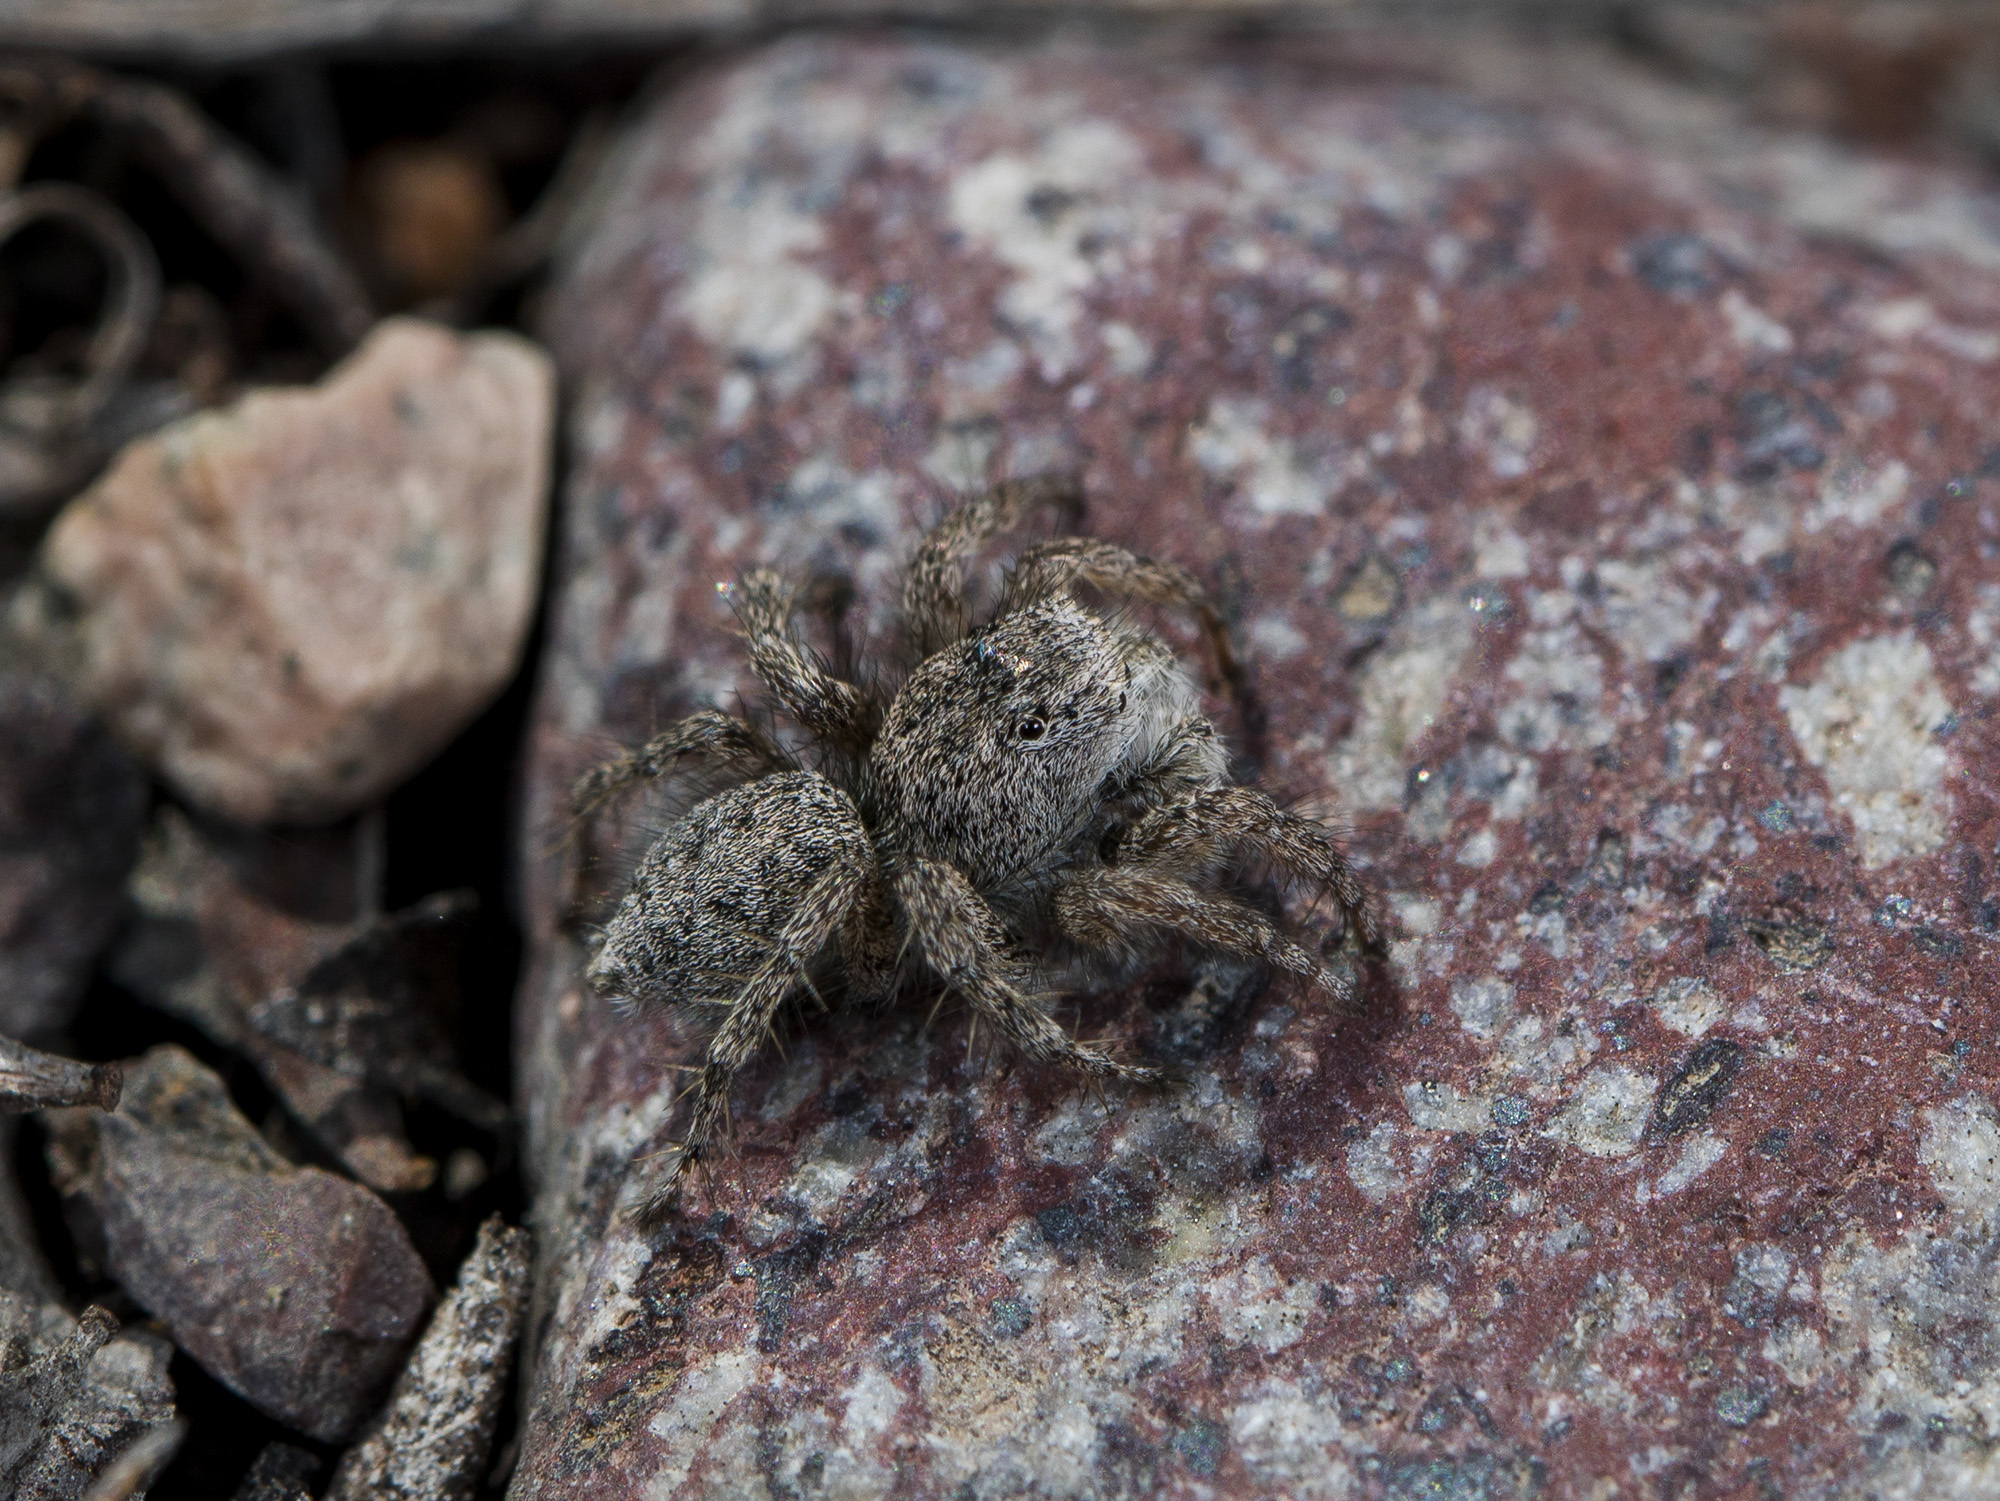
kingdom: Animalia
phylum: Arthropoda
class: Arachnida
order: Araneae
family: Salticidae
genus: Aelurillus
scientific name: Aelurillus dubatolovi
